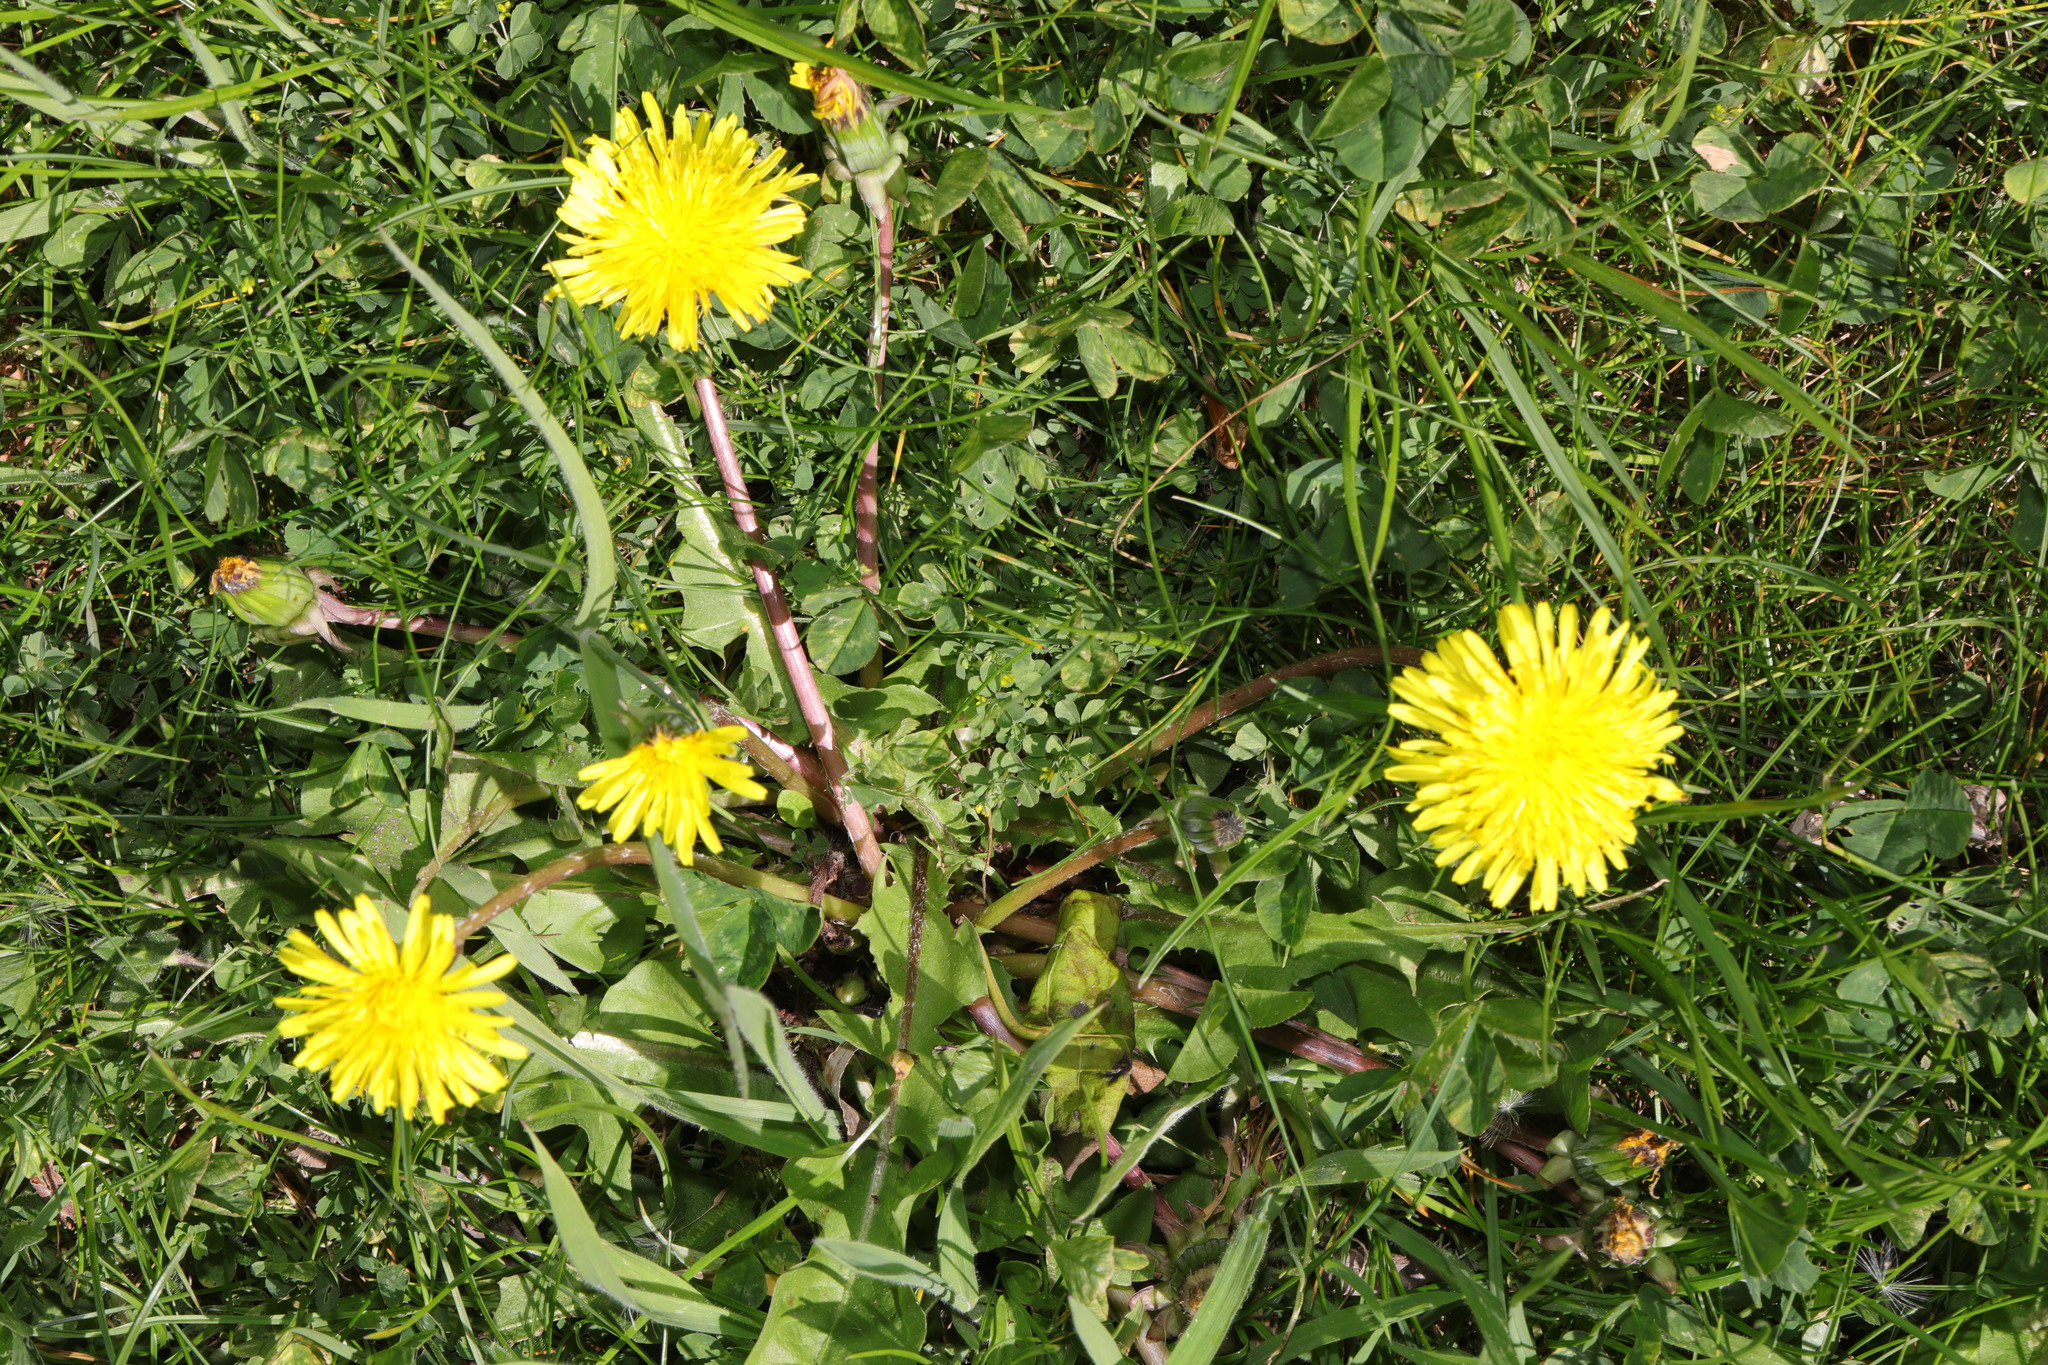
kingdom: Plantae
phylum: Tracheophyta
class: Magnoliopsida
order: Asterales
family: Asteraceae
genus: Taraxacum
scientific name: Taraxacum officinale
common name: Common dandelion
